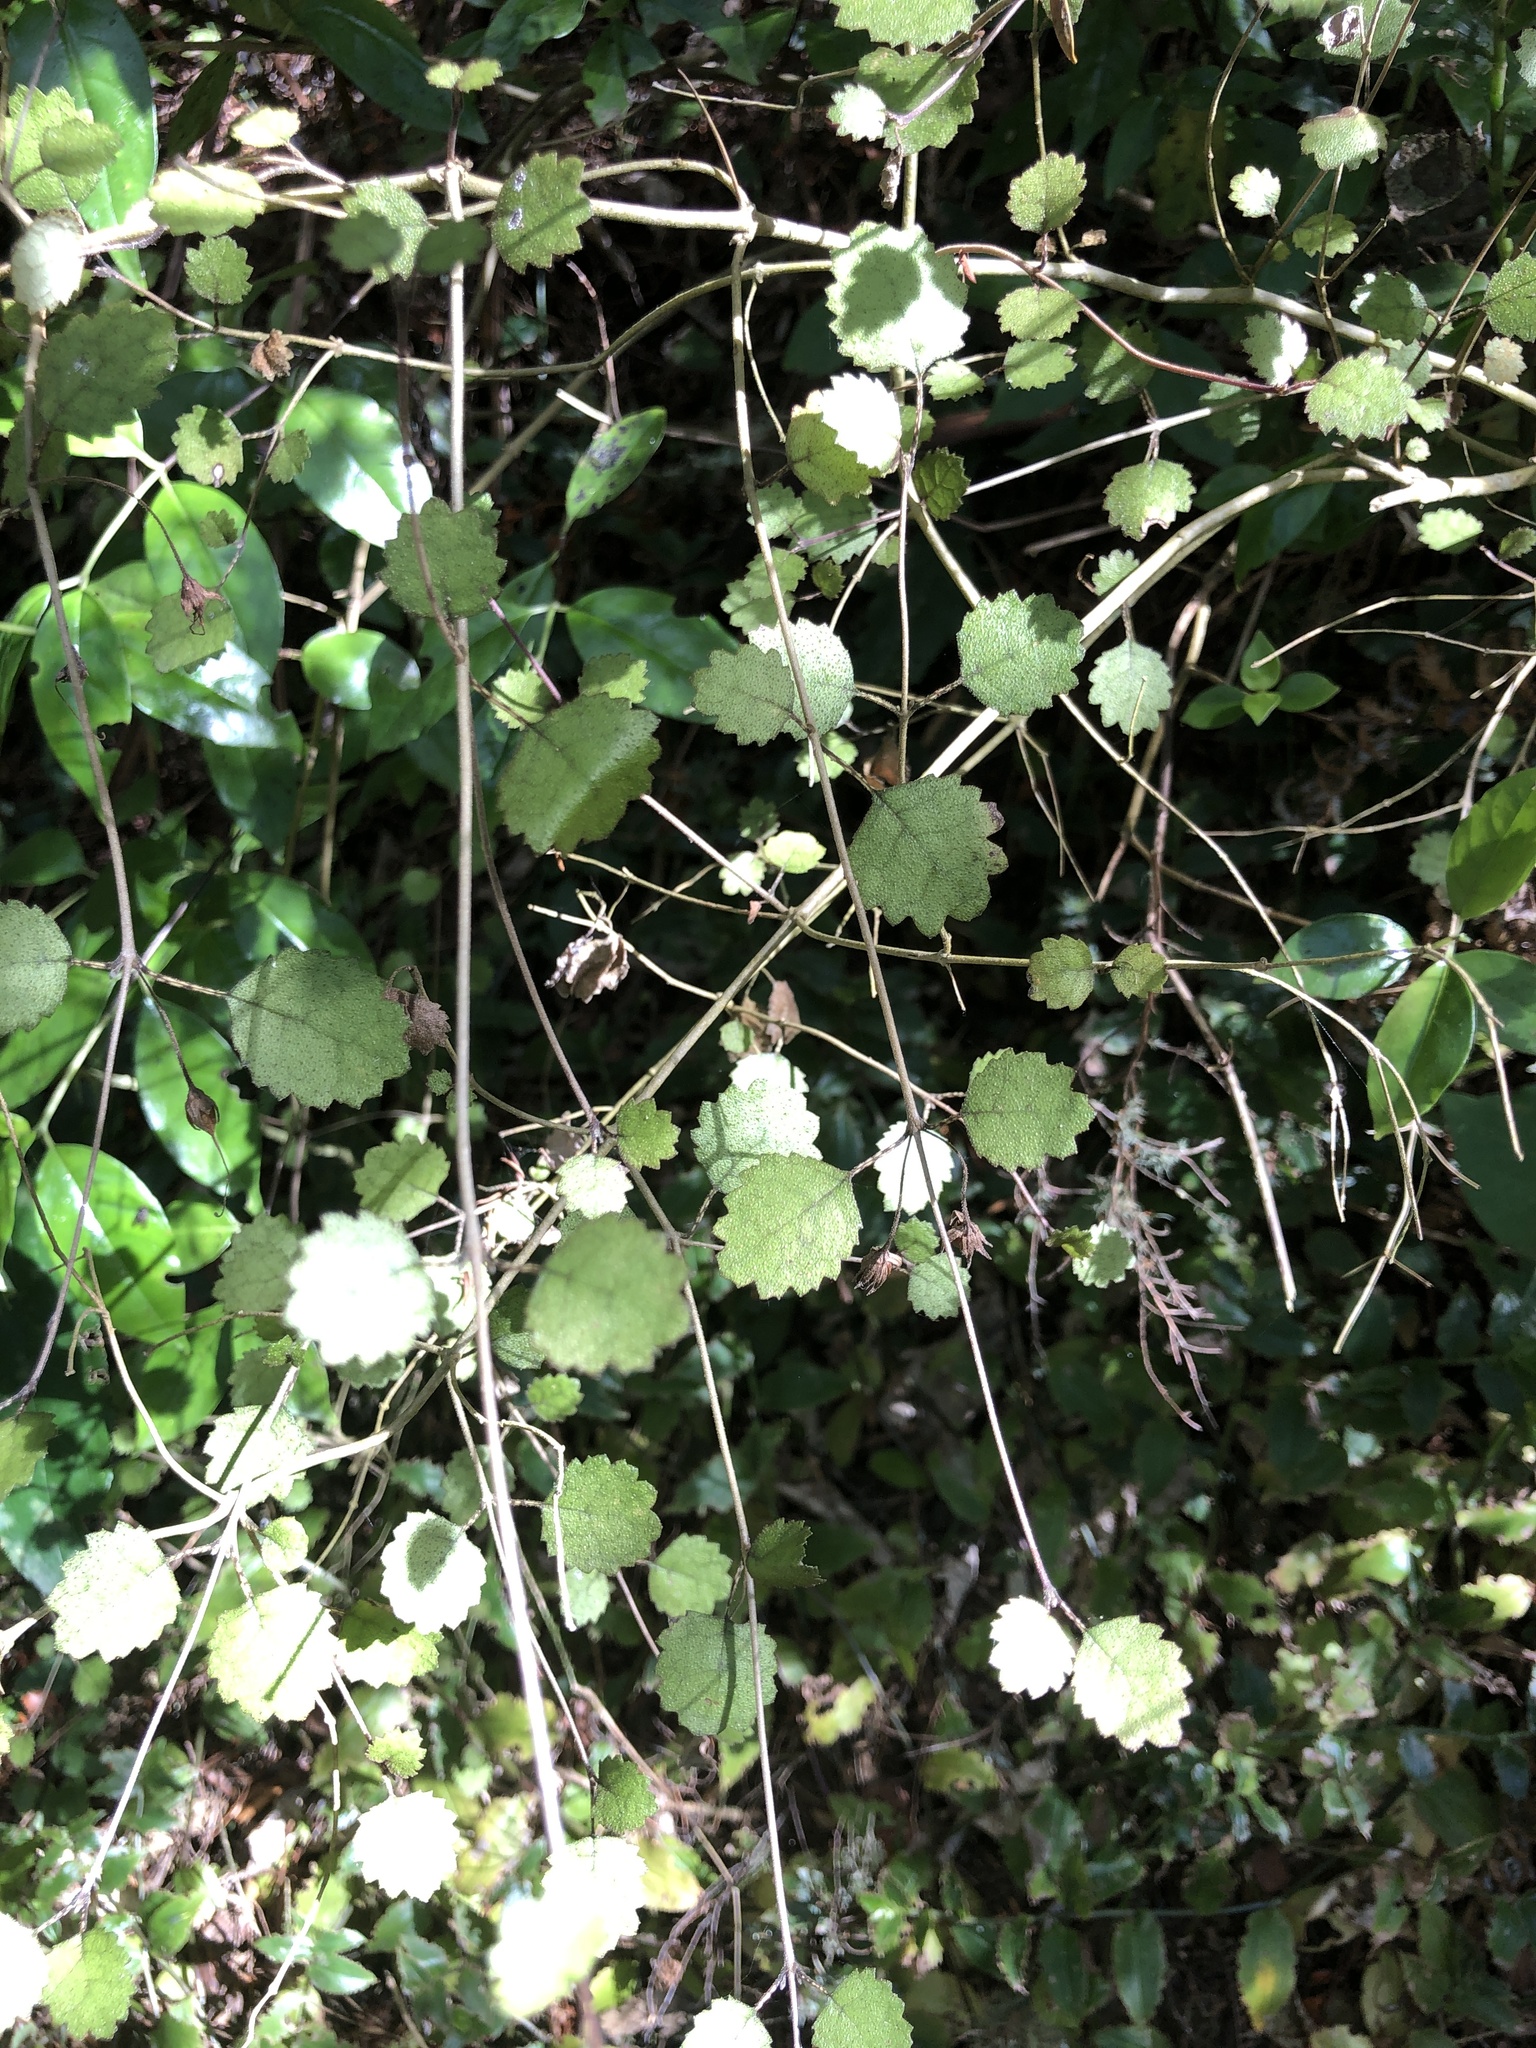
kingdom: Plantae
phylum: Tracheophyta
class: Magnoliopsida
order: Lamiales
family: Gesneriaceae
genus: Rhabdothamnus
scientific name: Rhabdothamnus solandri
